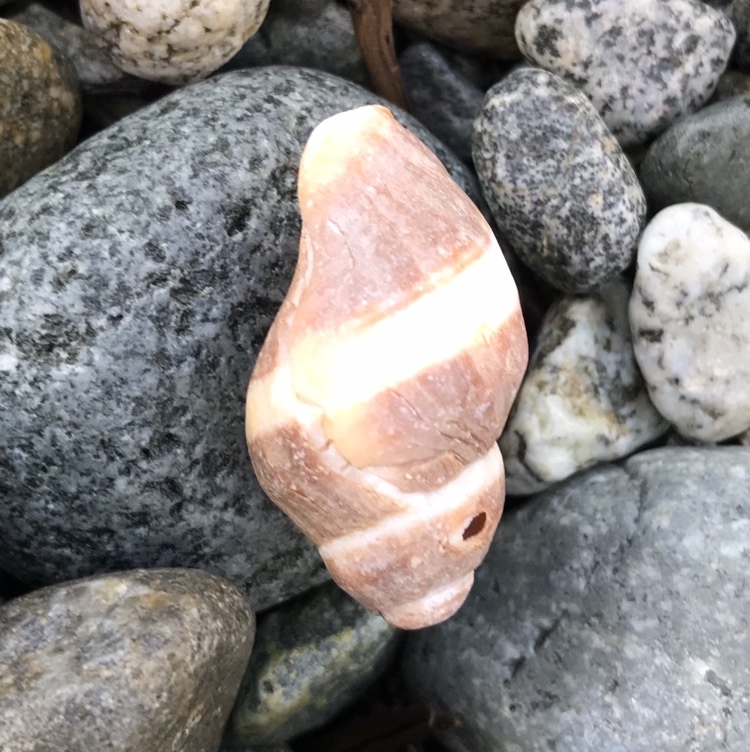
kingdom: Animalia
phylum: Mollusca
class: Gastropoda
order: Neogastropoda
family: Muricidae
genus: Nucella
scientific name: Nucella lamellosa
